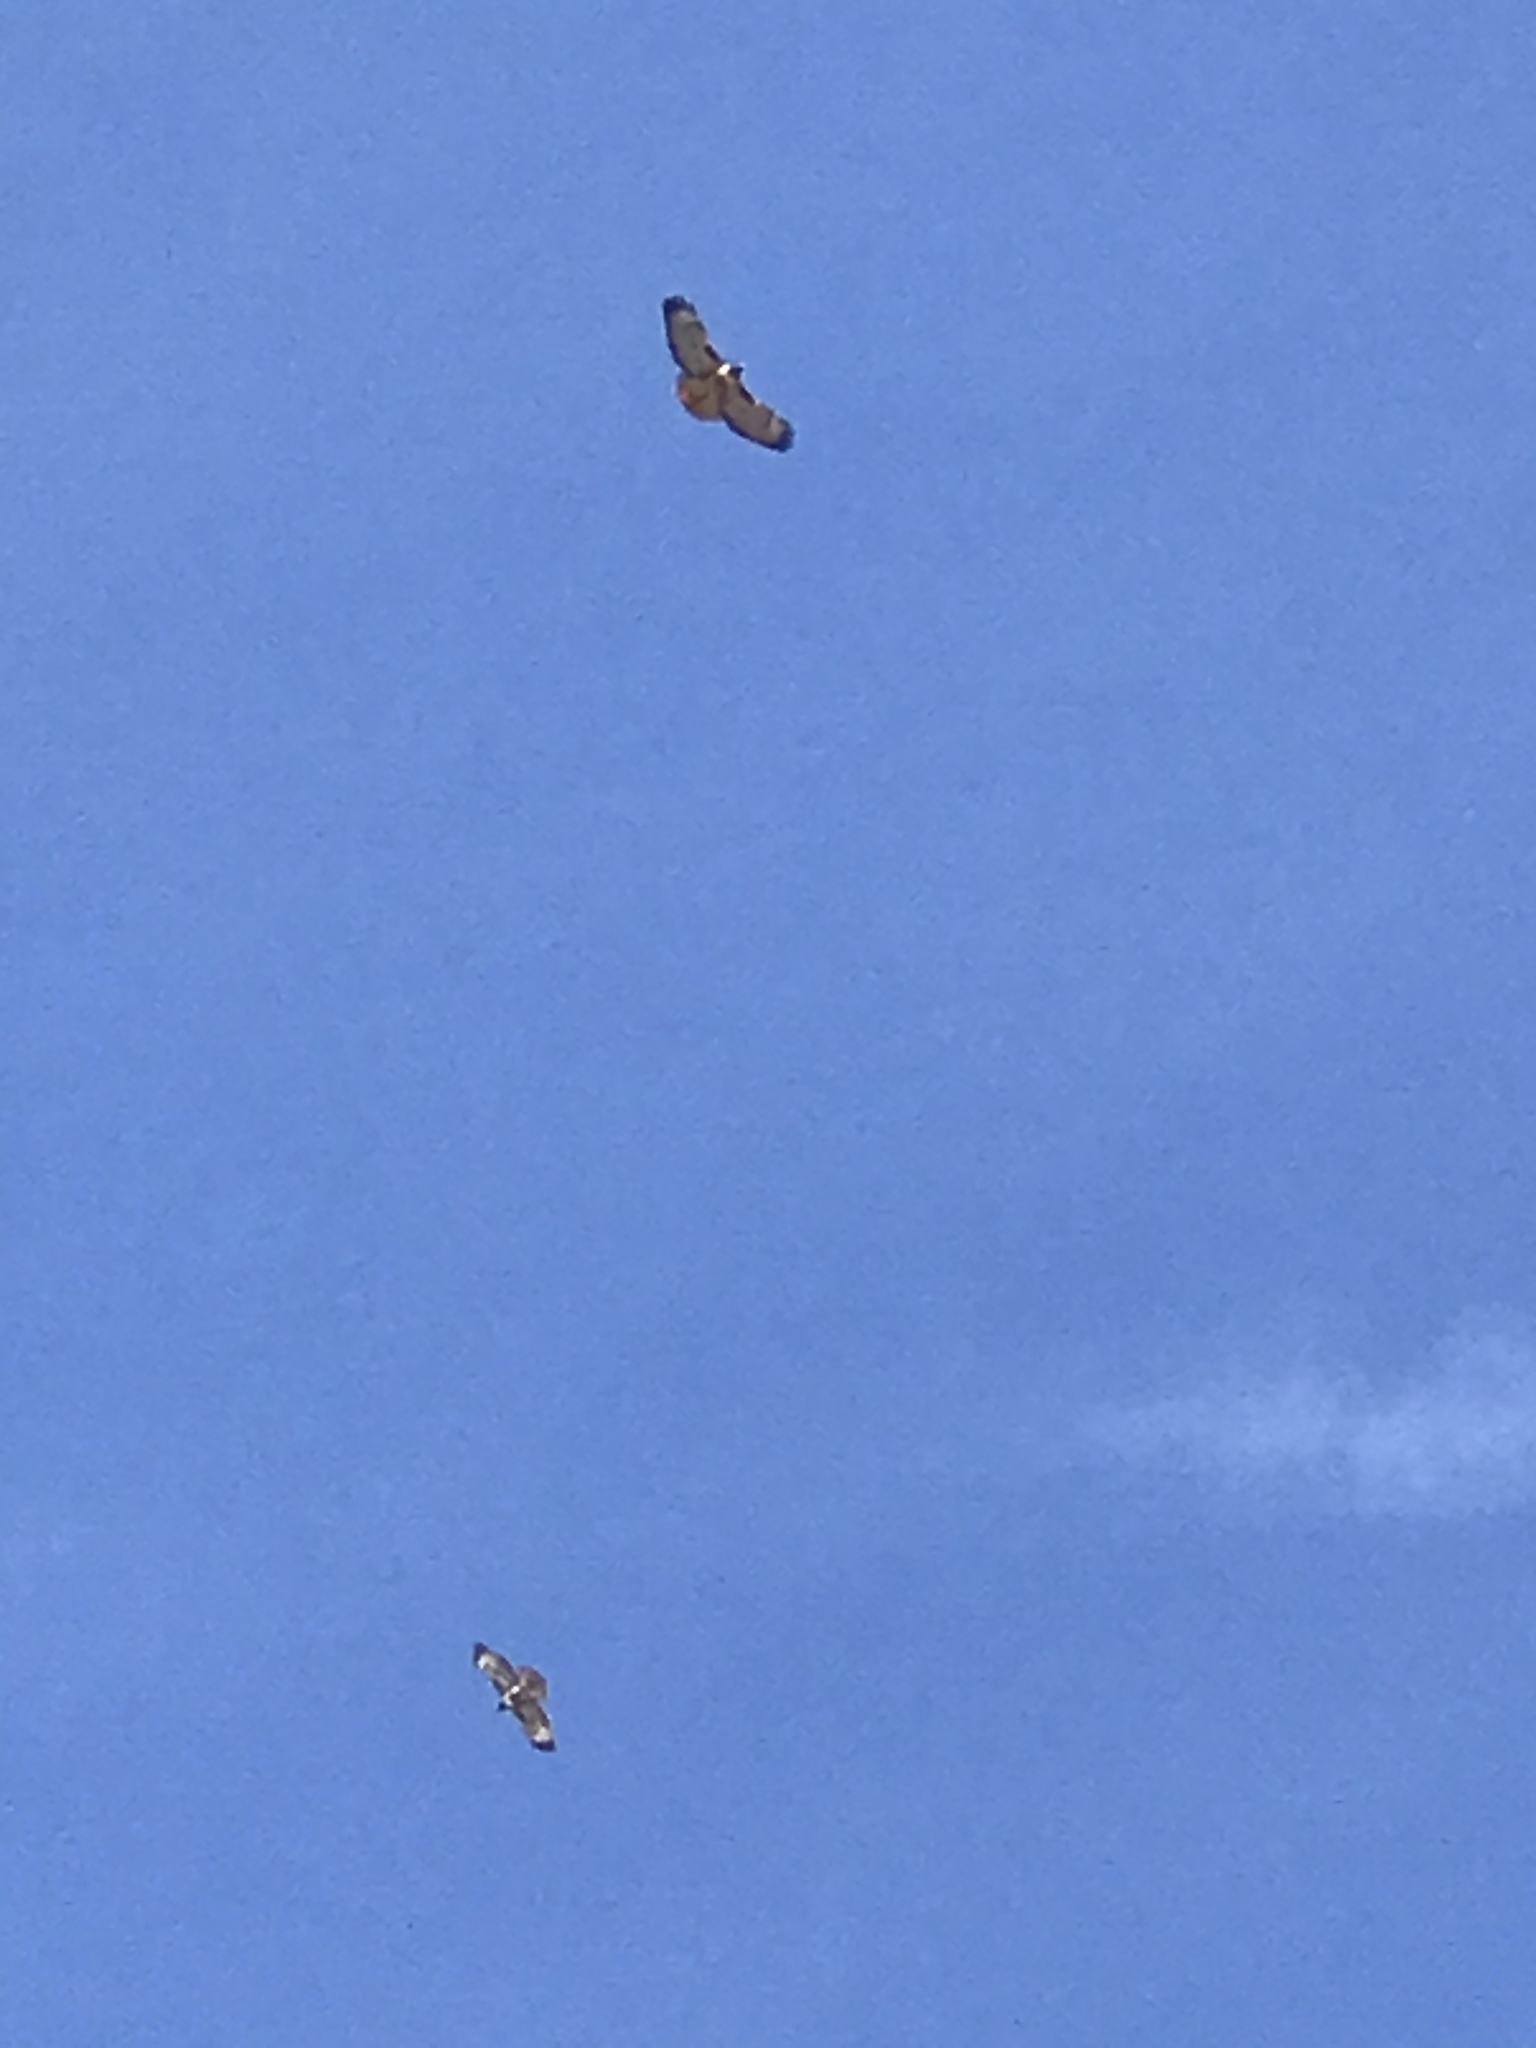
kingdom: Animalia
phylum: Chordata
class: Aves
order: Accipitriformes
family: Accipitridae
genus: Buteo
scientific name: Buteo jamaicensis
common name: Red-tailed hawk
